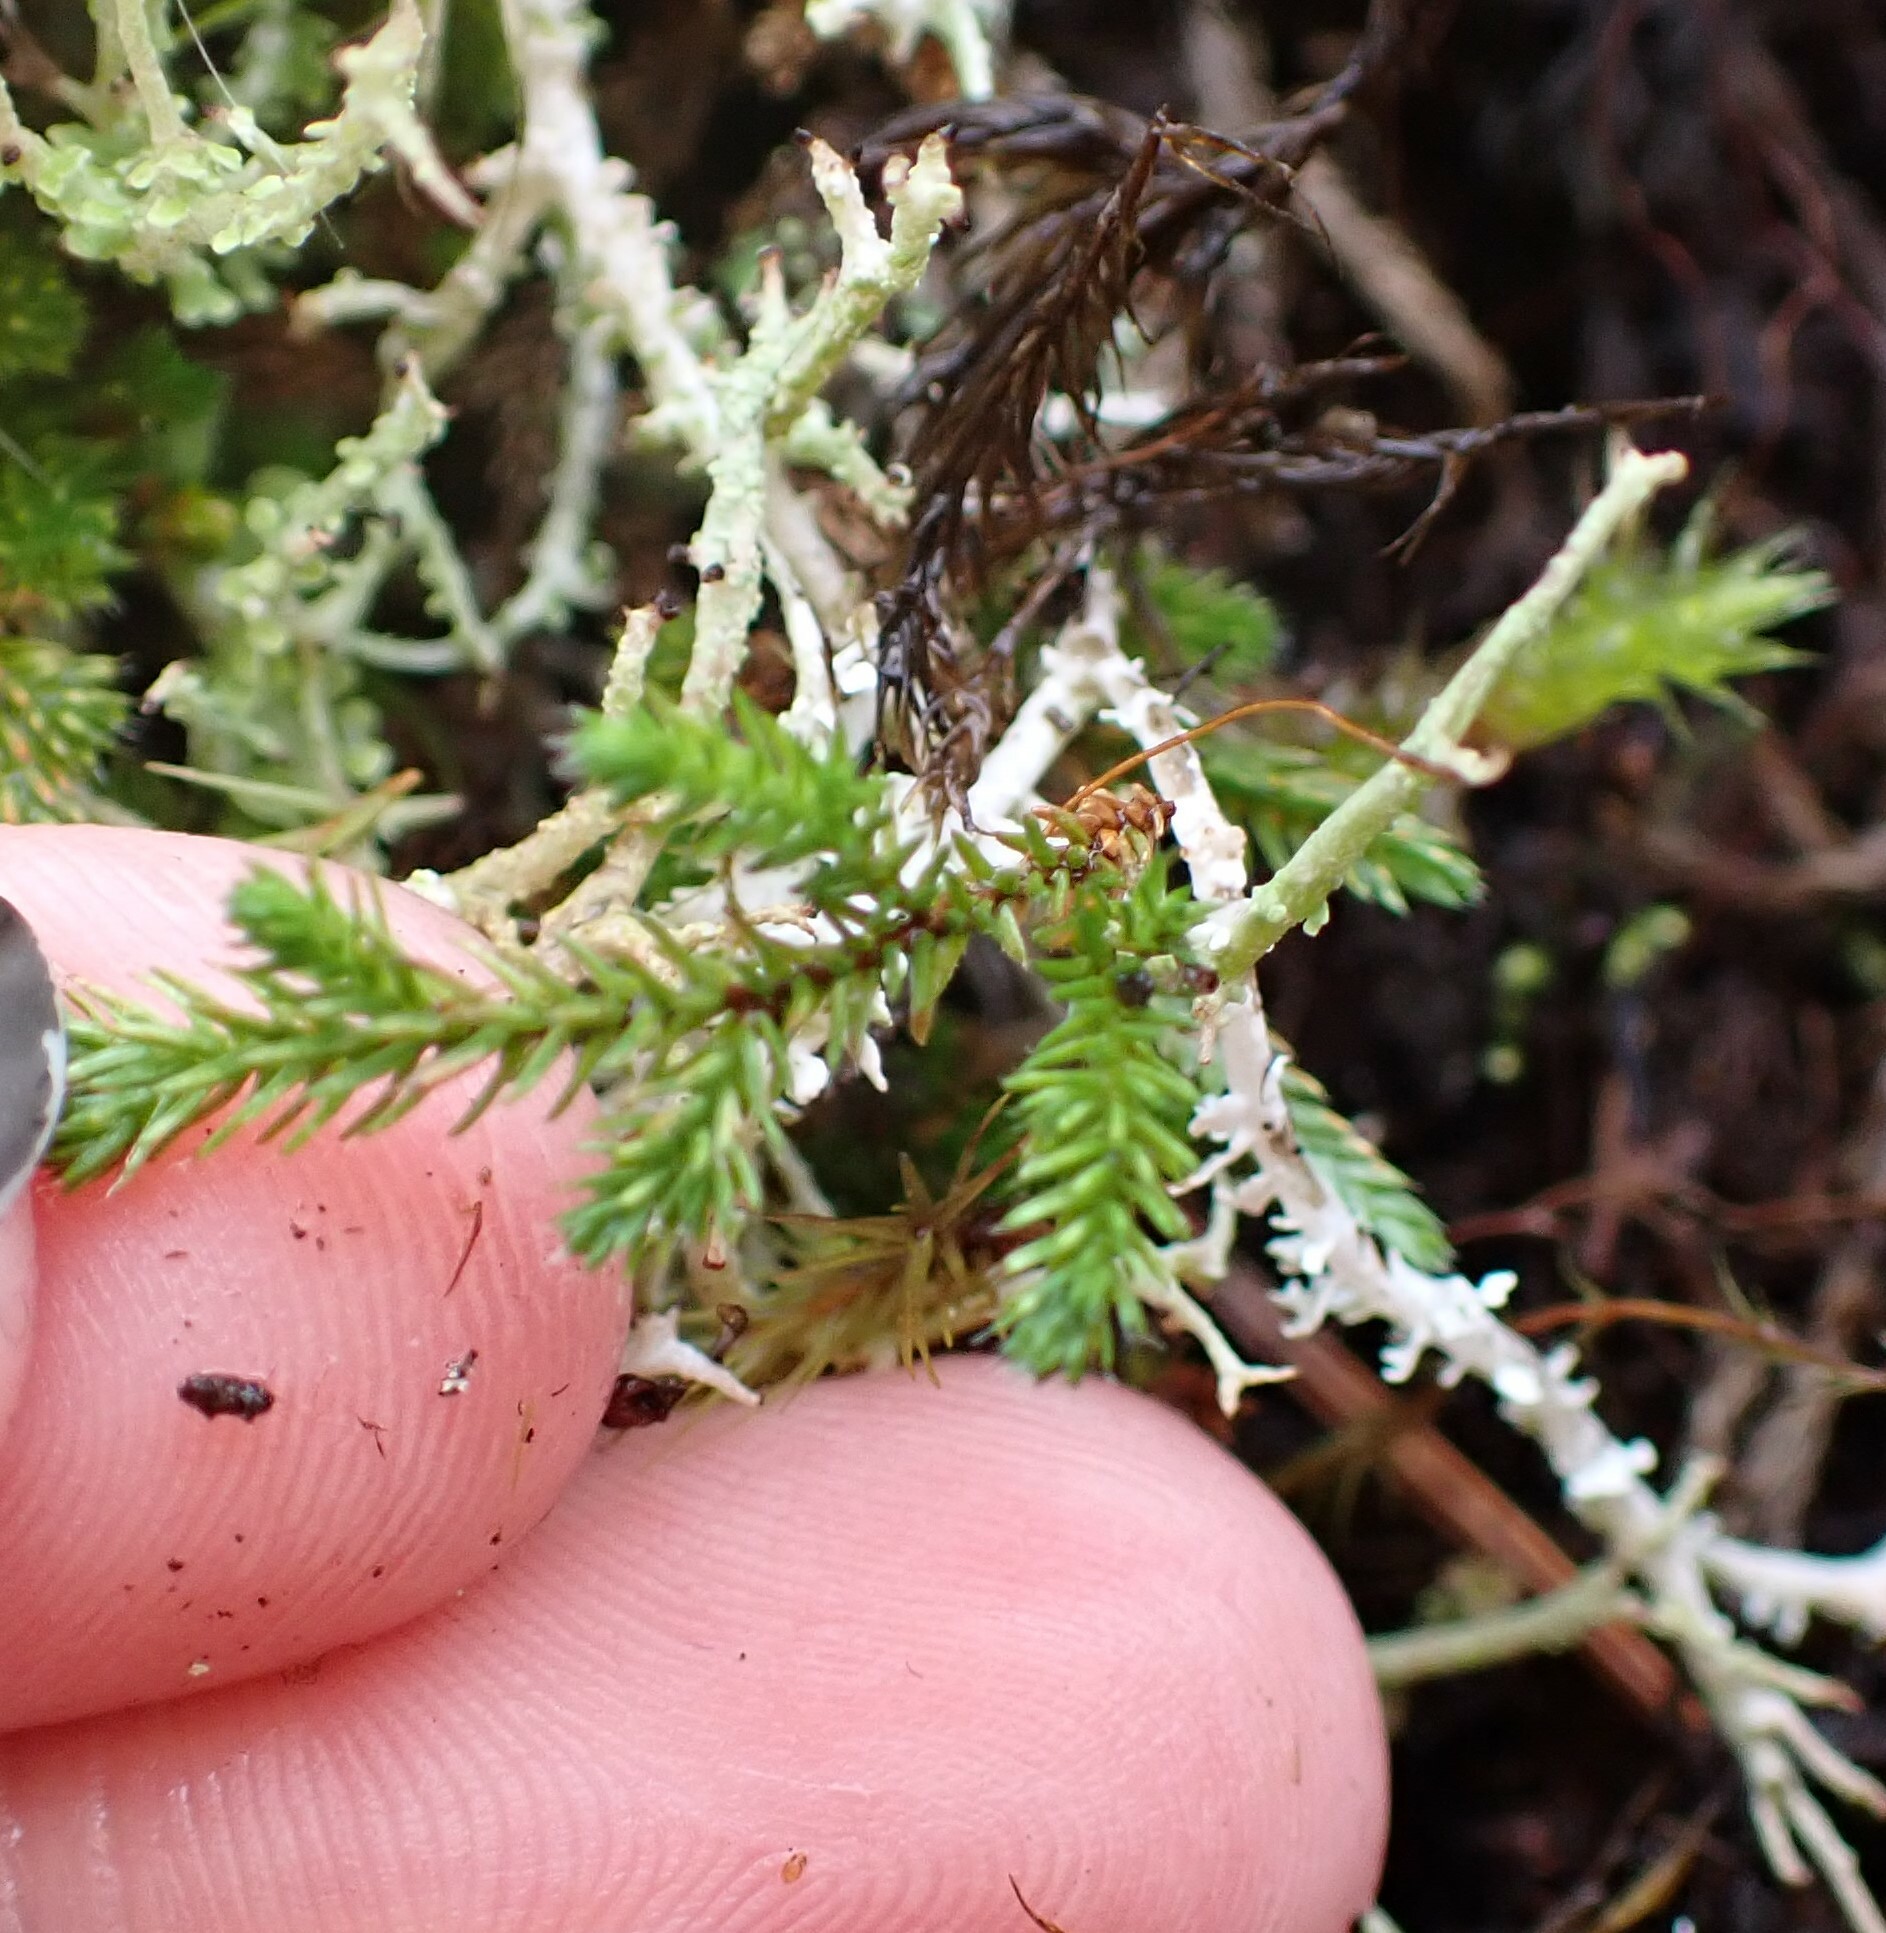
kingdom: Plantae
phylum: Tracheophyta
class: Lycopodiopsida
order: Selaginellales
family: Selaginellaceae
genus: Selaginella
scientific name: Selaginella wallacei
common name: Wallace's selaginella
